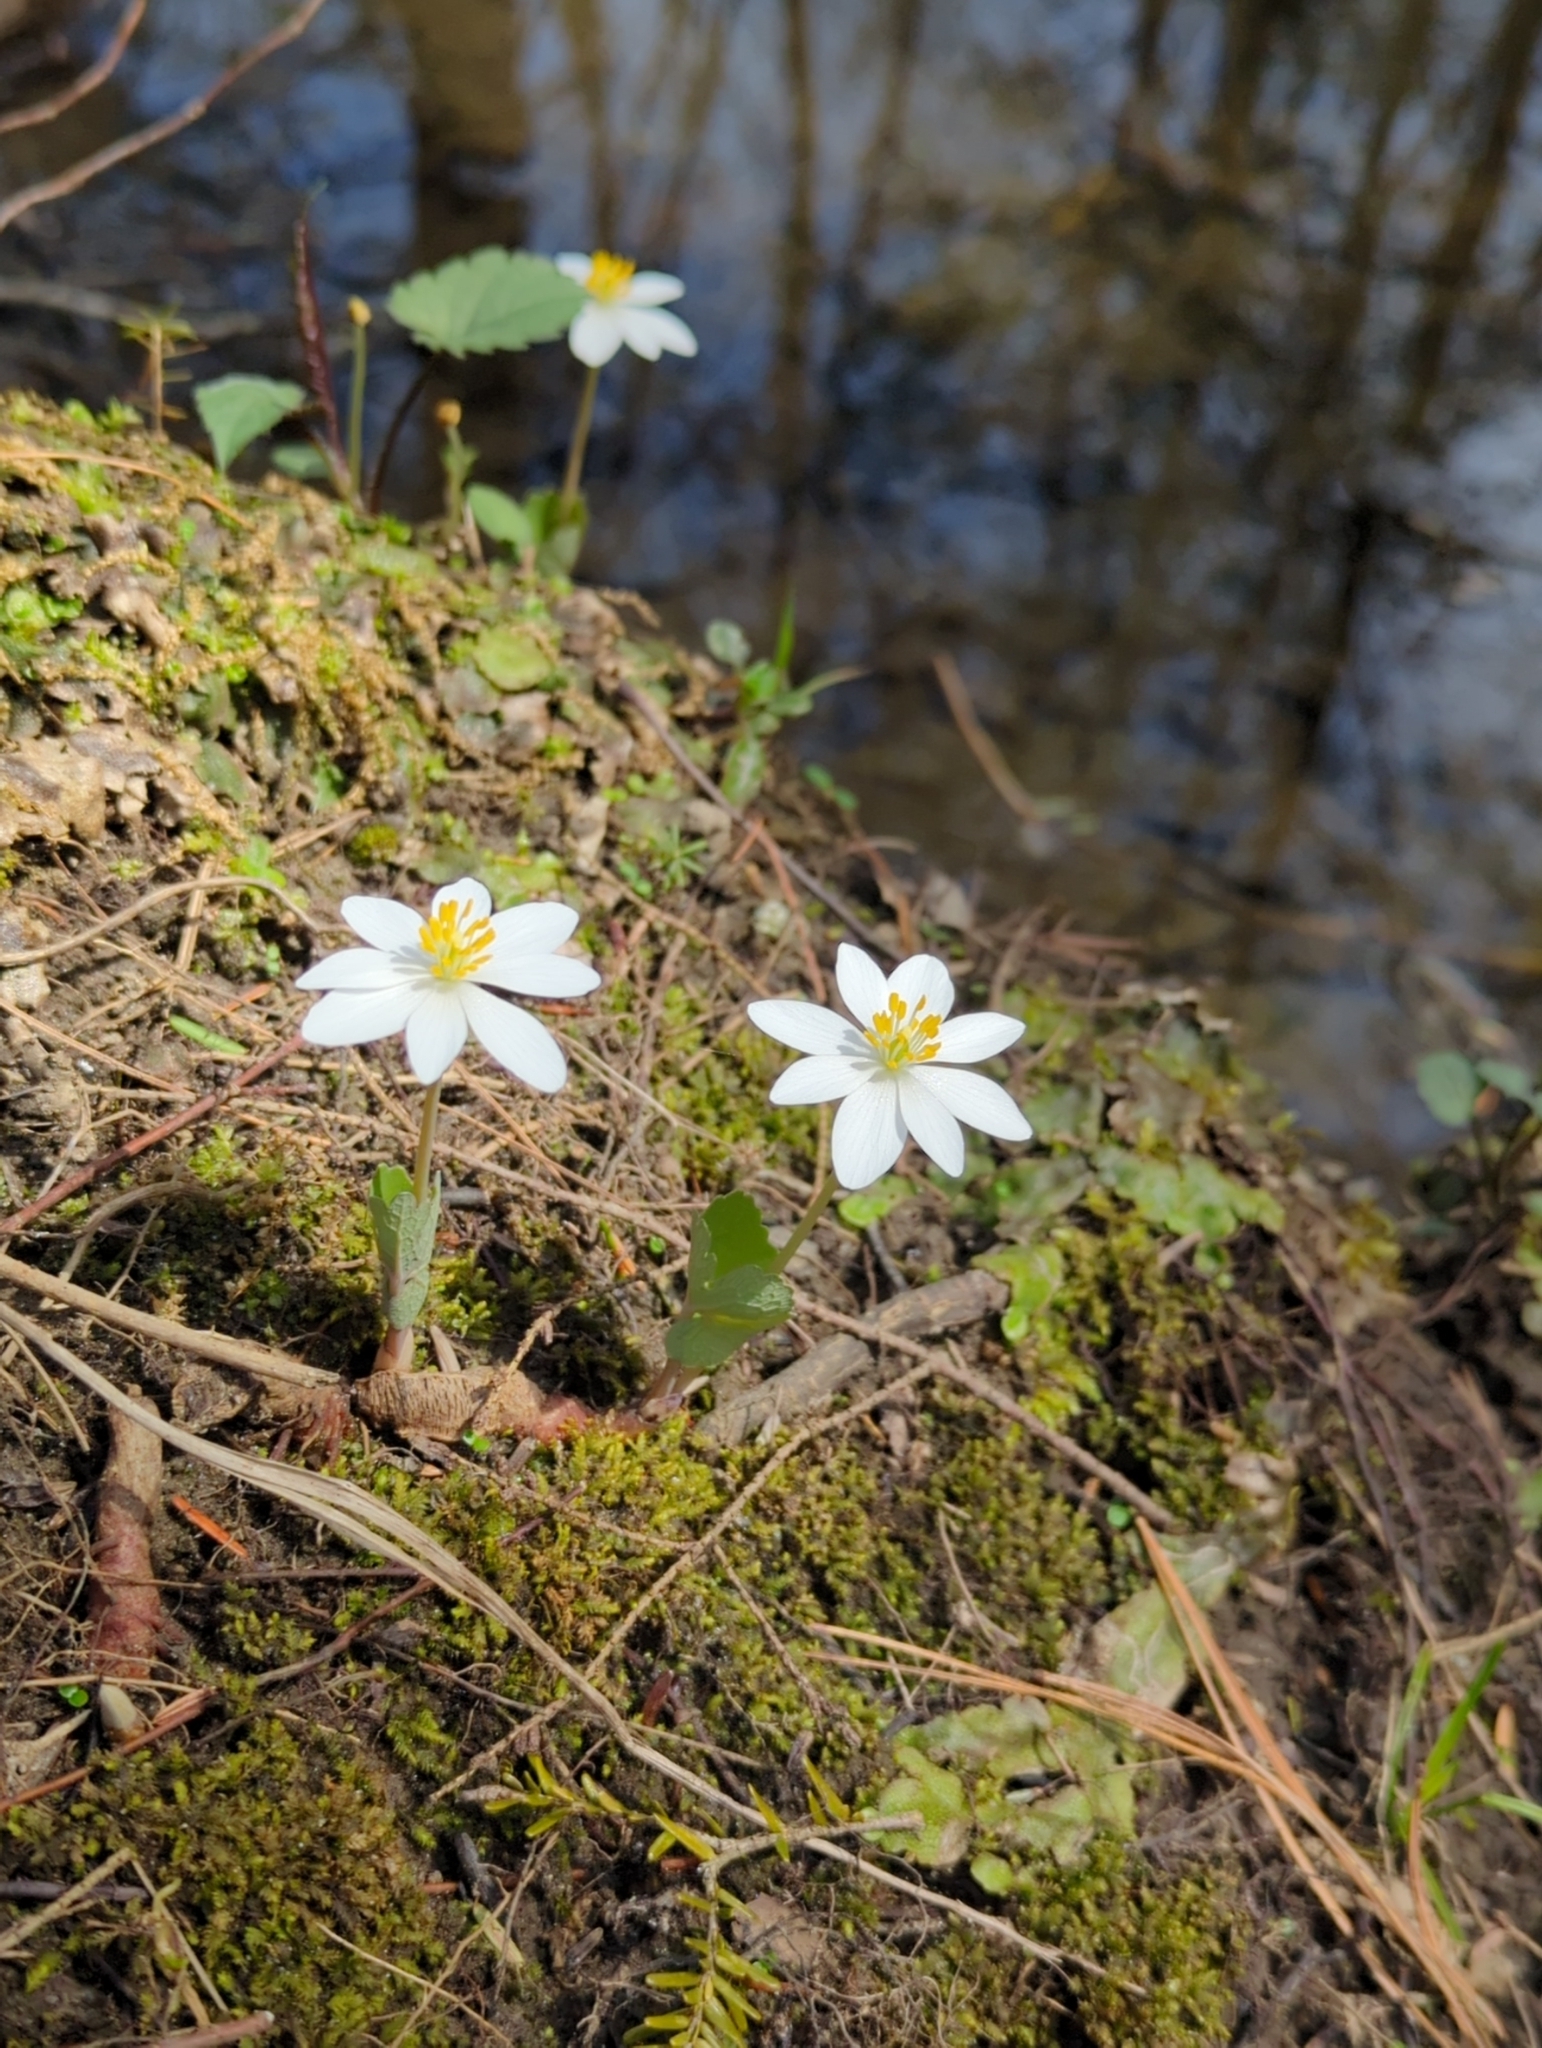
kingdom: Plantae
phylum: Tracheophyta
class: Magnoliopsida
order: Ranunculales
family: Papaveraceae
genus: Sanguinaria
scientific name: Sanguinaria canadensis
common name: Bloodroot
